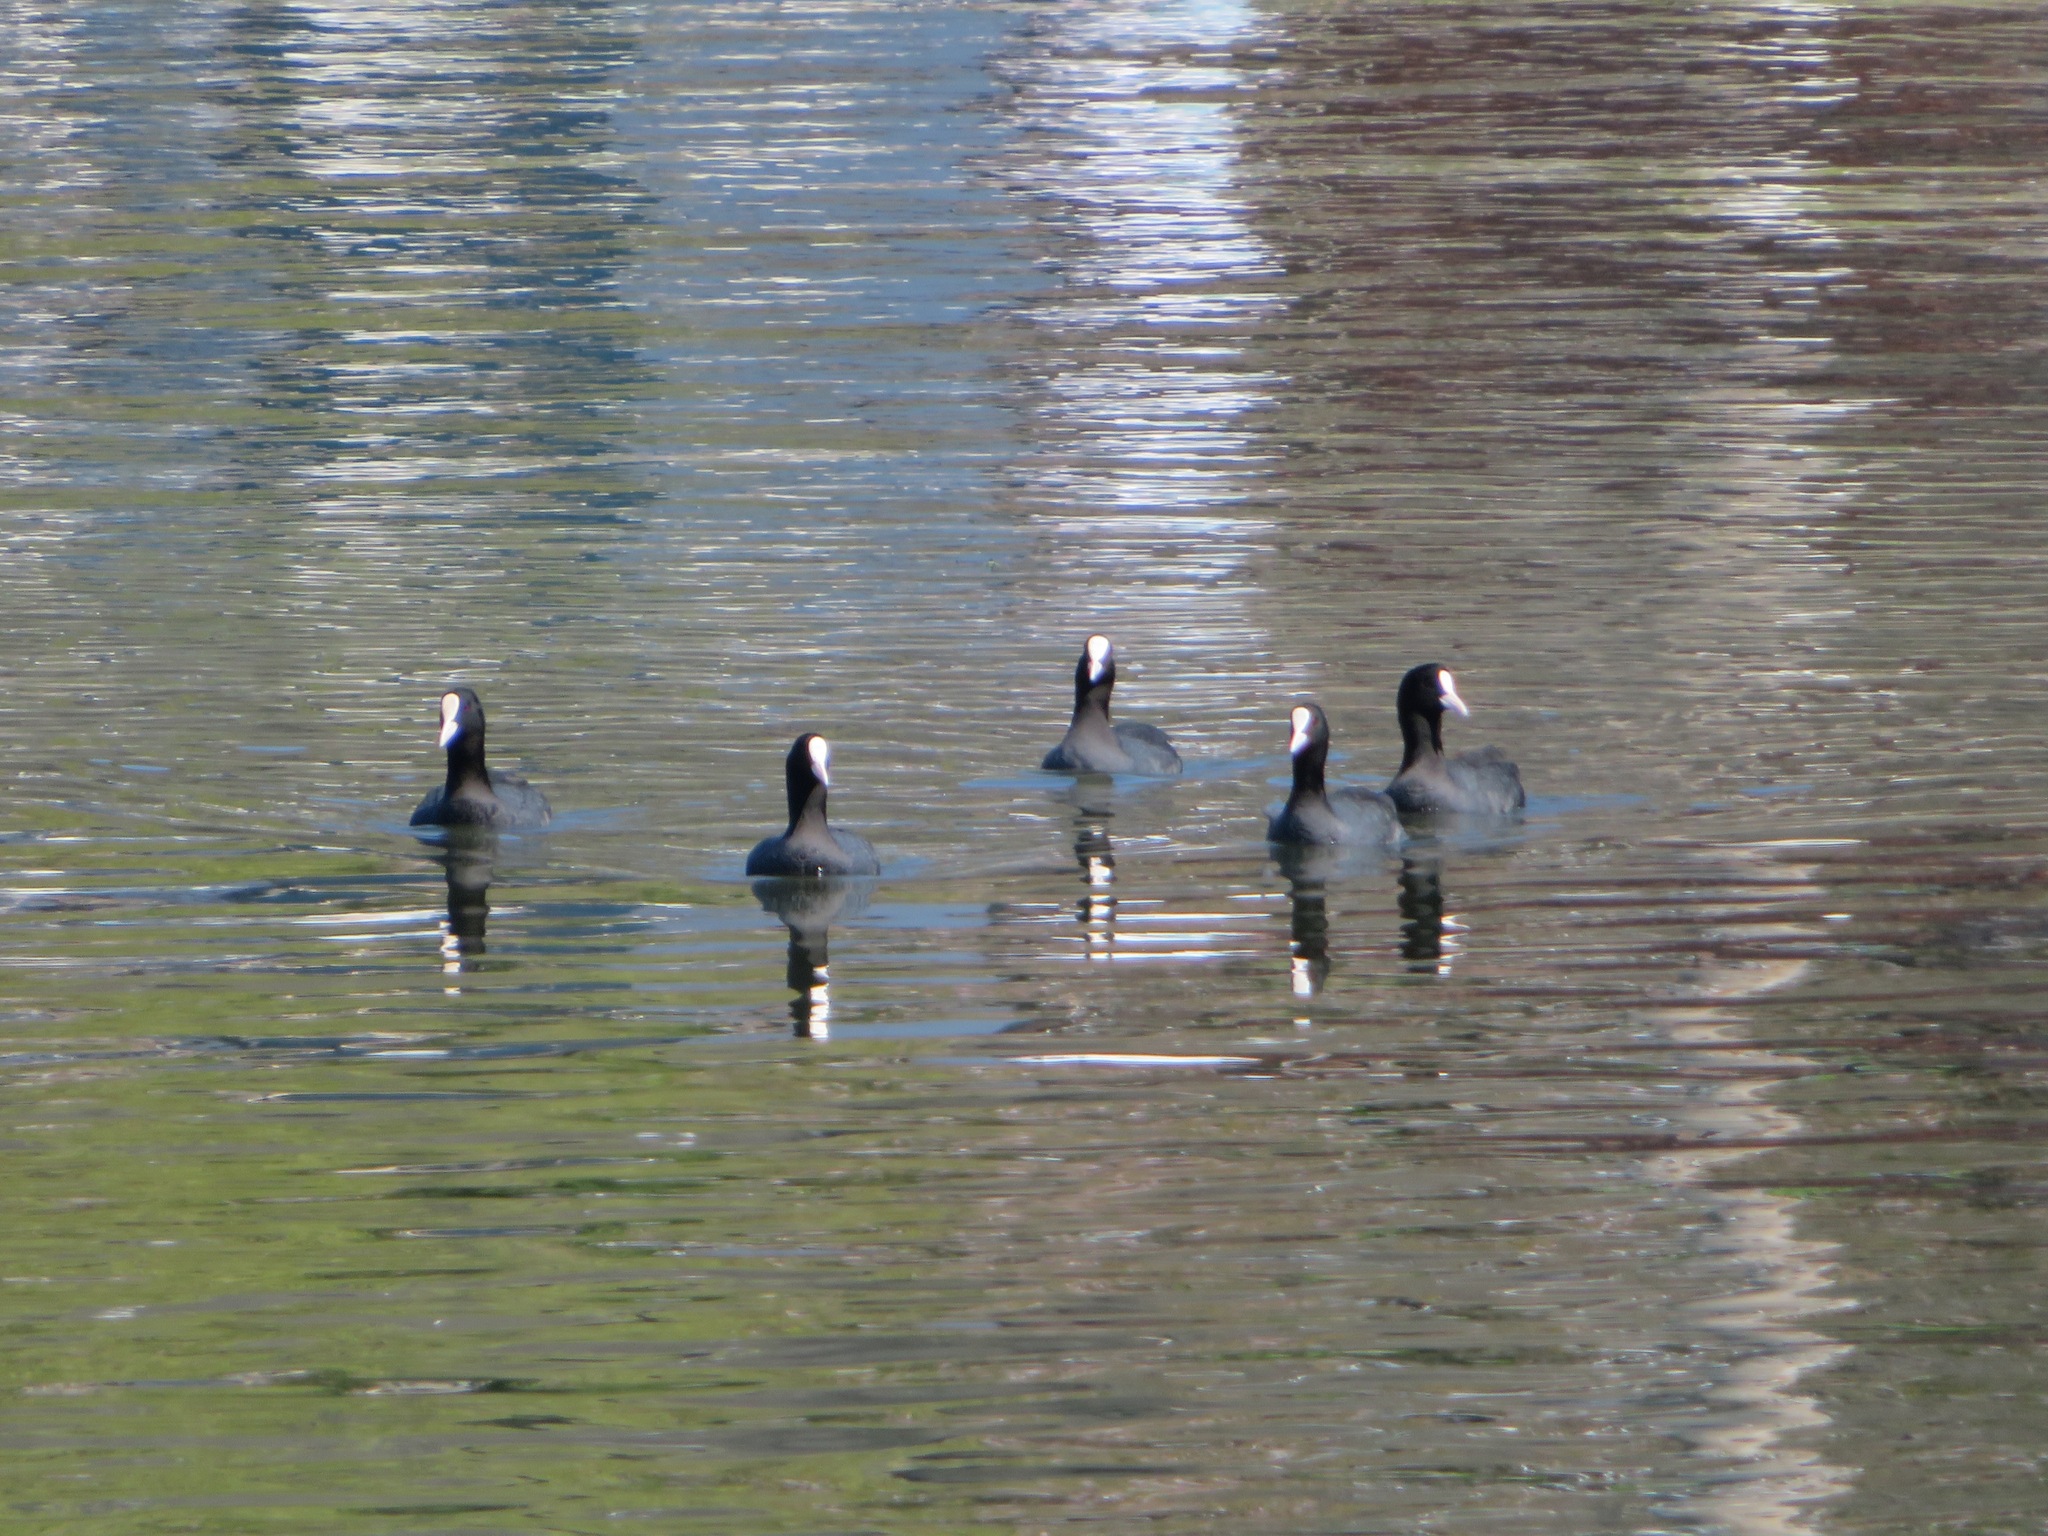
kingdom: Animalia
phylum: Chordata
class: Aves
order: Gruiformes
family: Rallidae
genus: Fulica
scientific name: Fulica atra
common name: Eurasian coot
